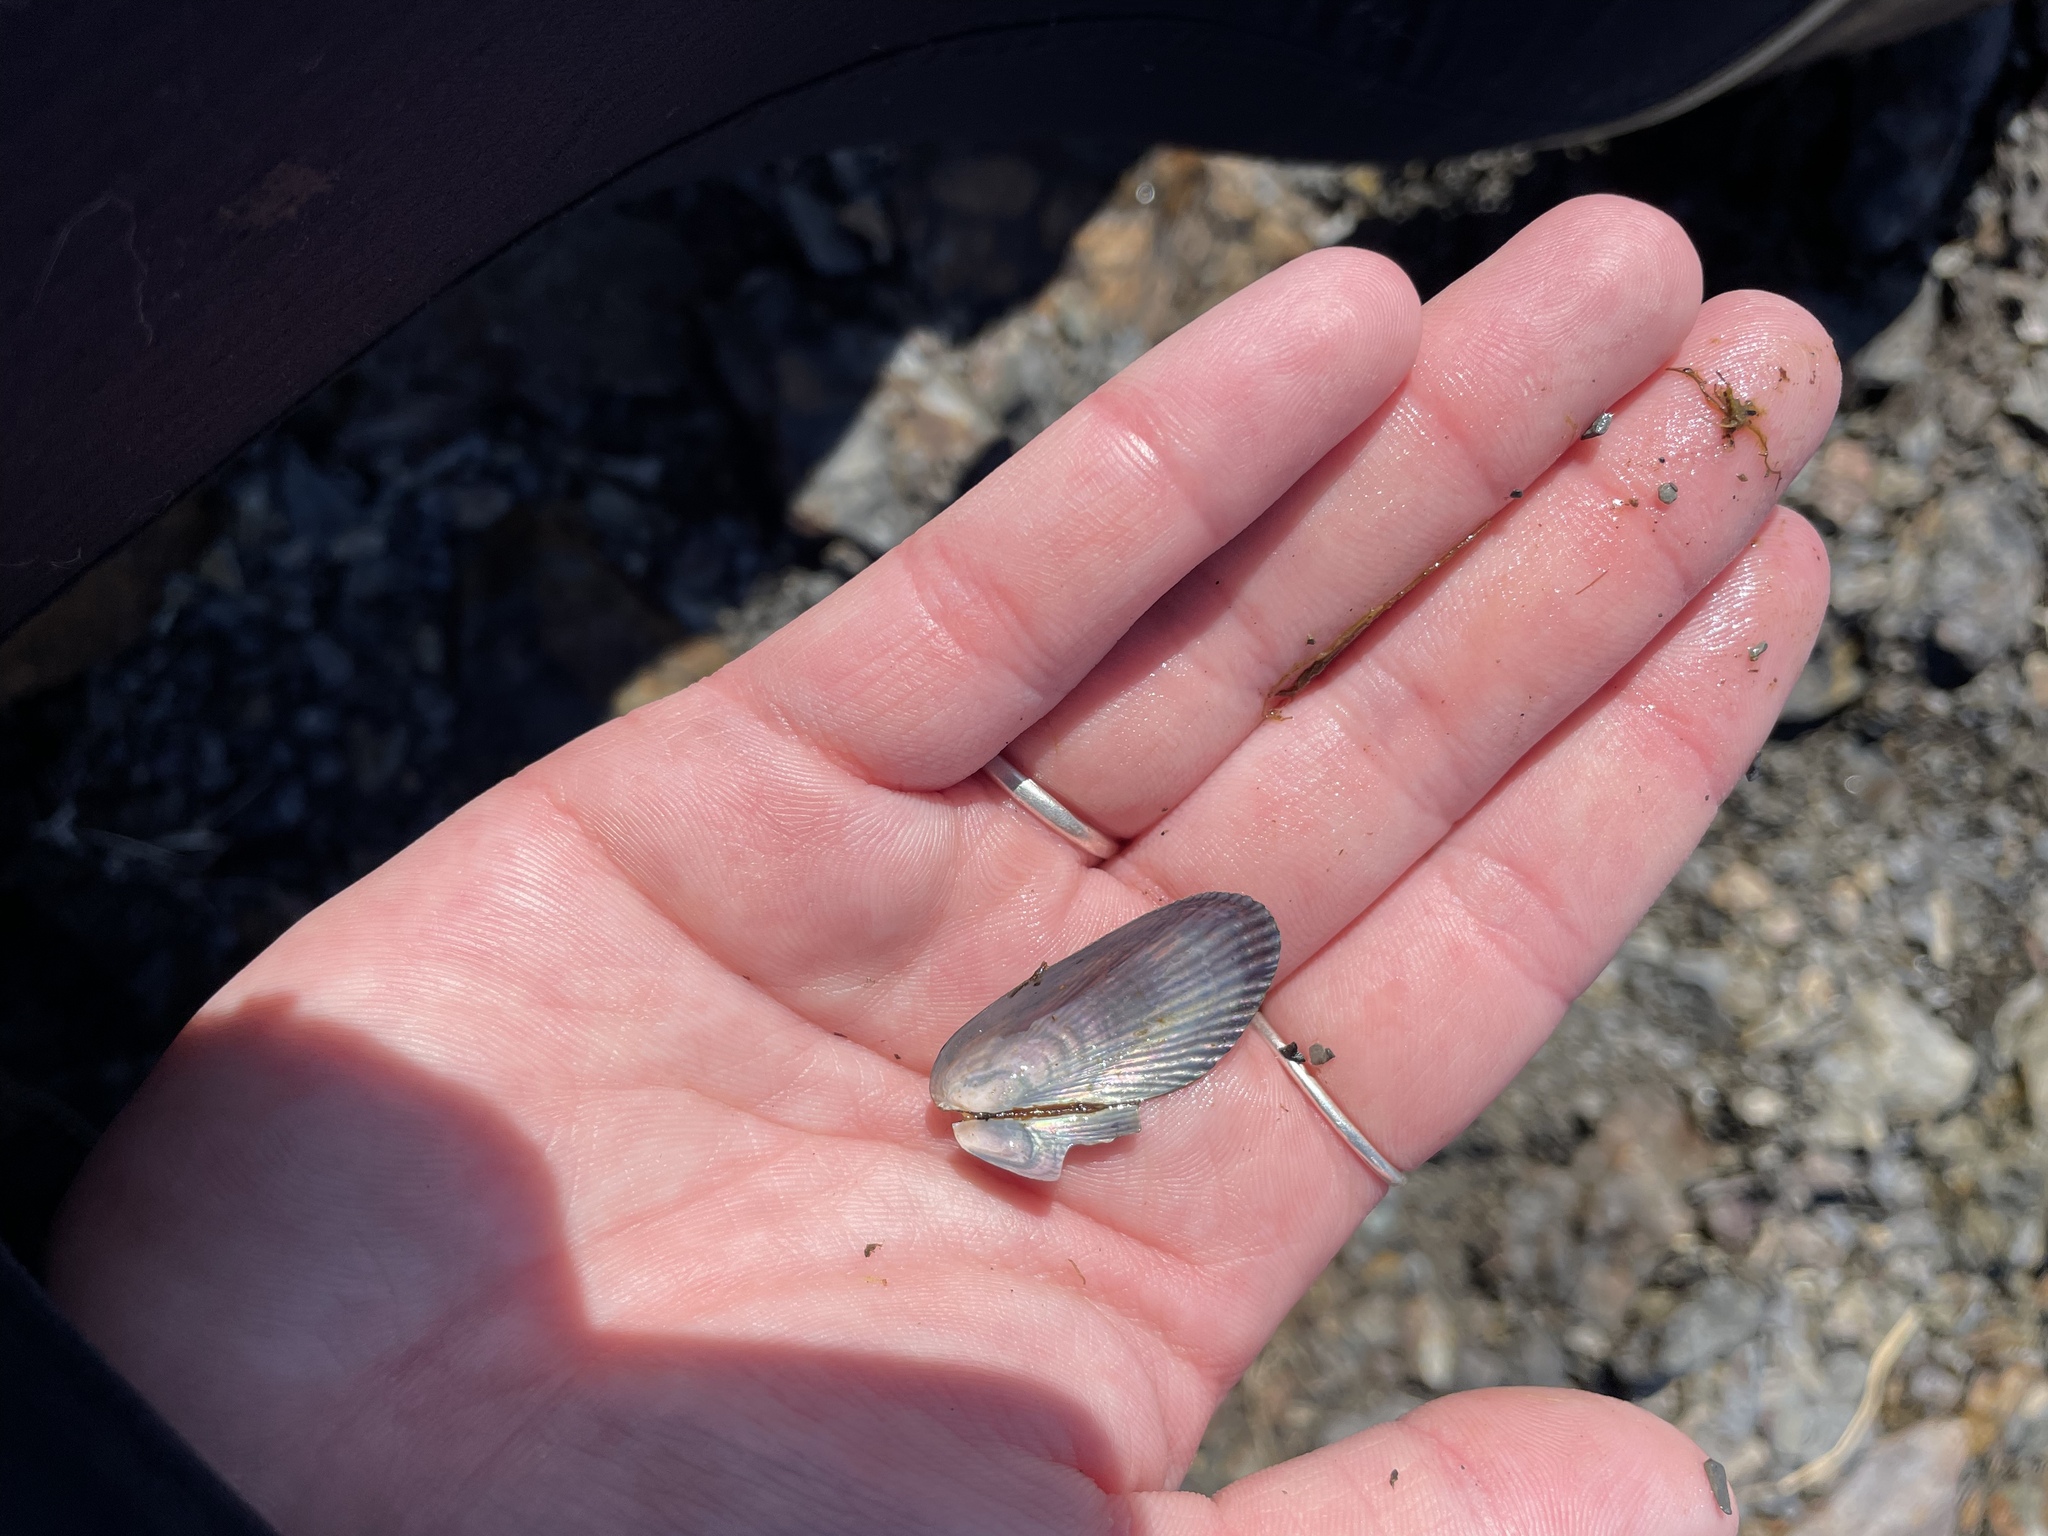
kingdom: Animalia
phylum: Mollusca
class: Bivalvia
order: Mytilida
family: Mytilidae
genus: Geukensia
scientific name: Geukensia demissa
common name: Ribbed mussel
